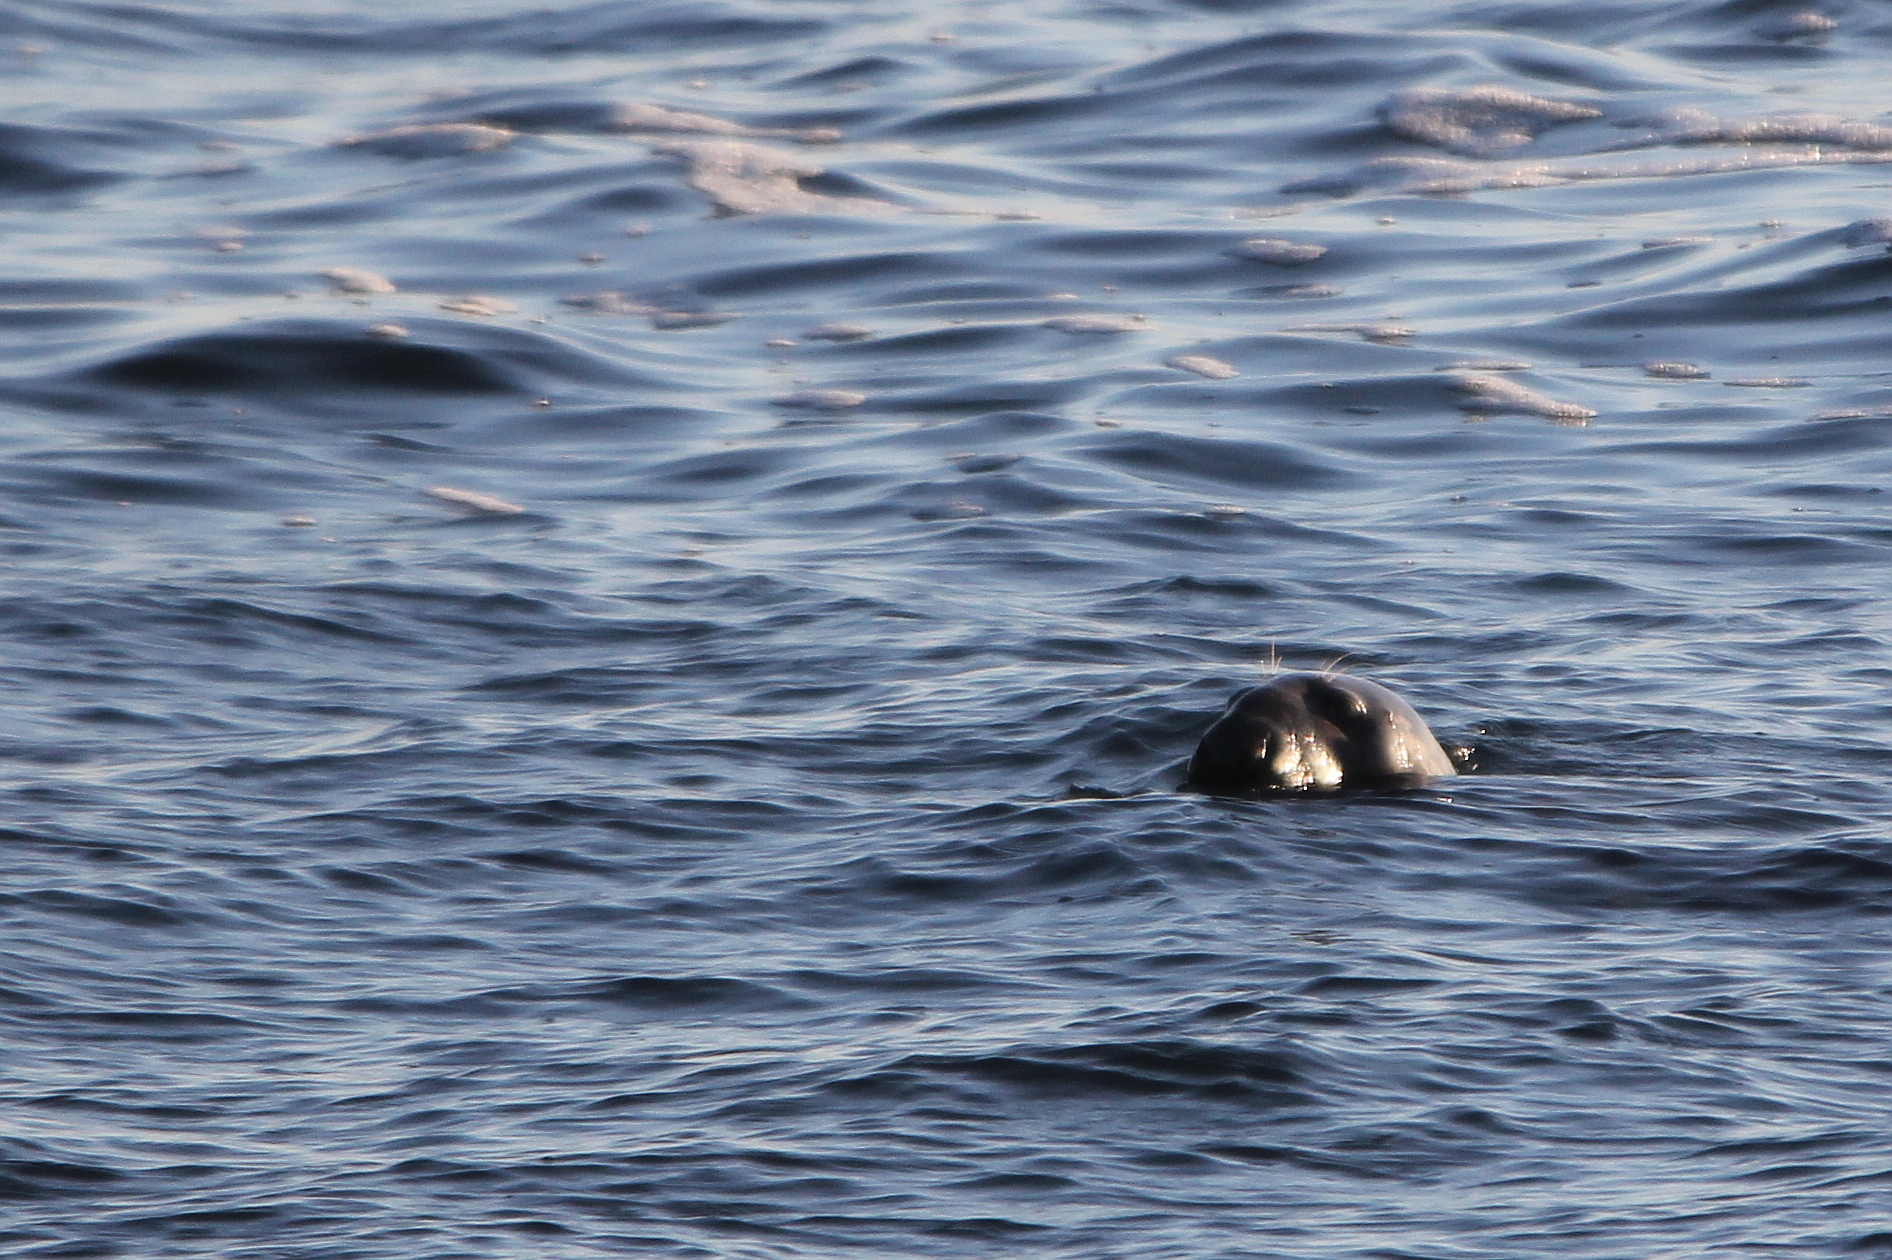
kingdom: Animalia
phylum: Chordata
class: Mammalia
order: Carnivora
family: Phocidae
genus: Halichoerus
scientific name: Halichoerus grypus
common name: Grey seal
